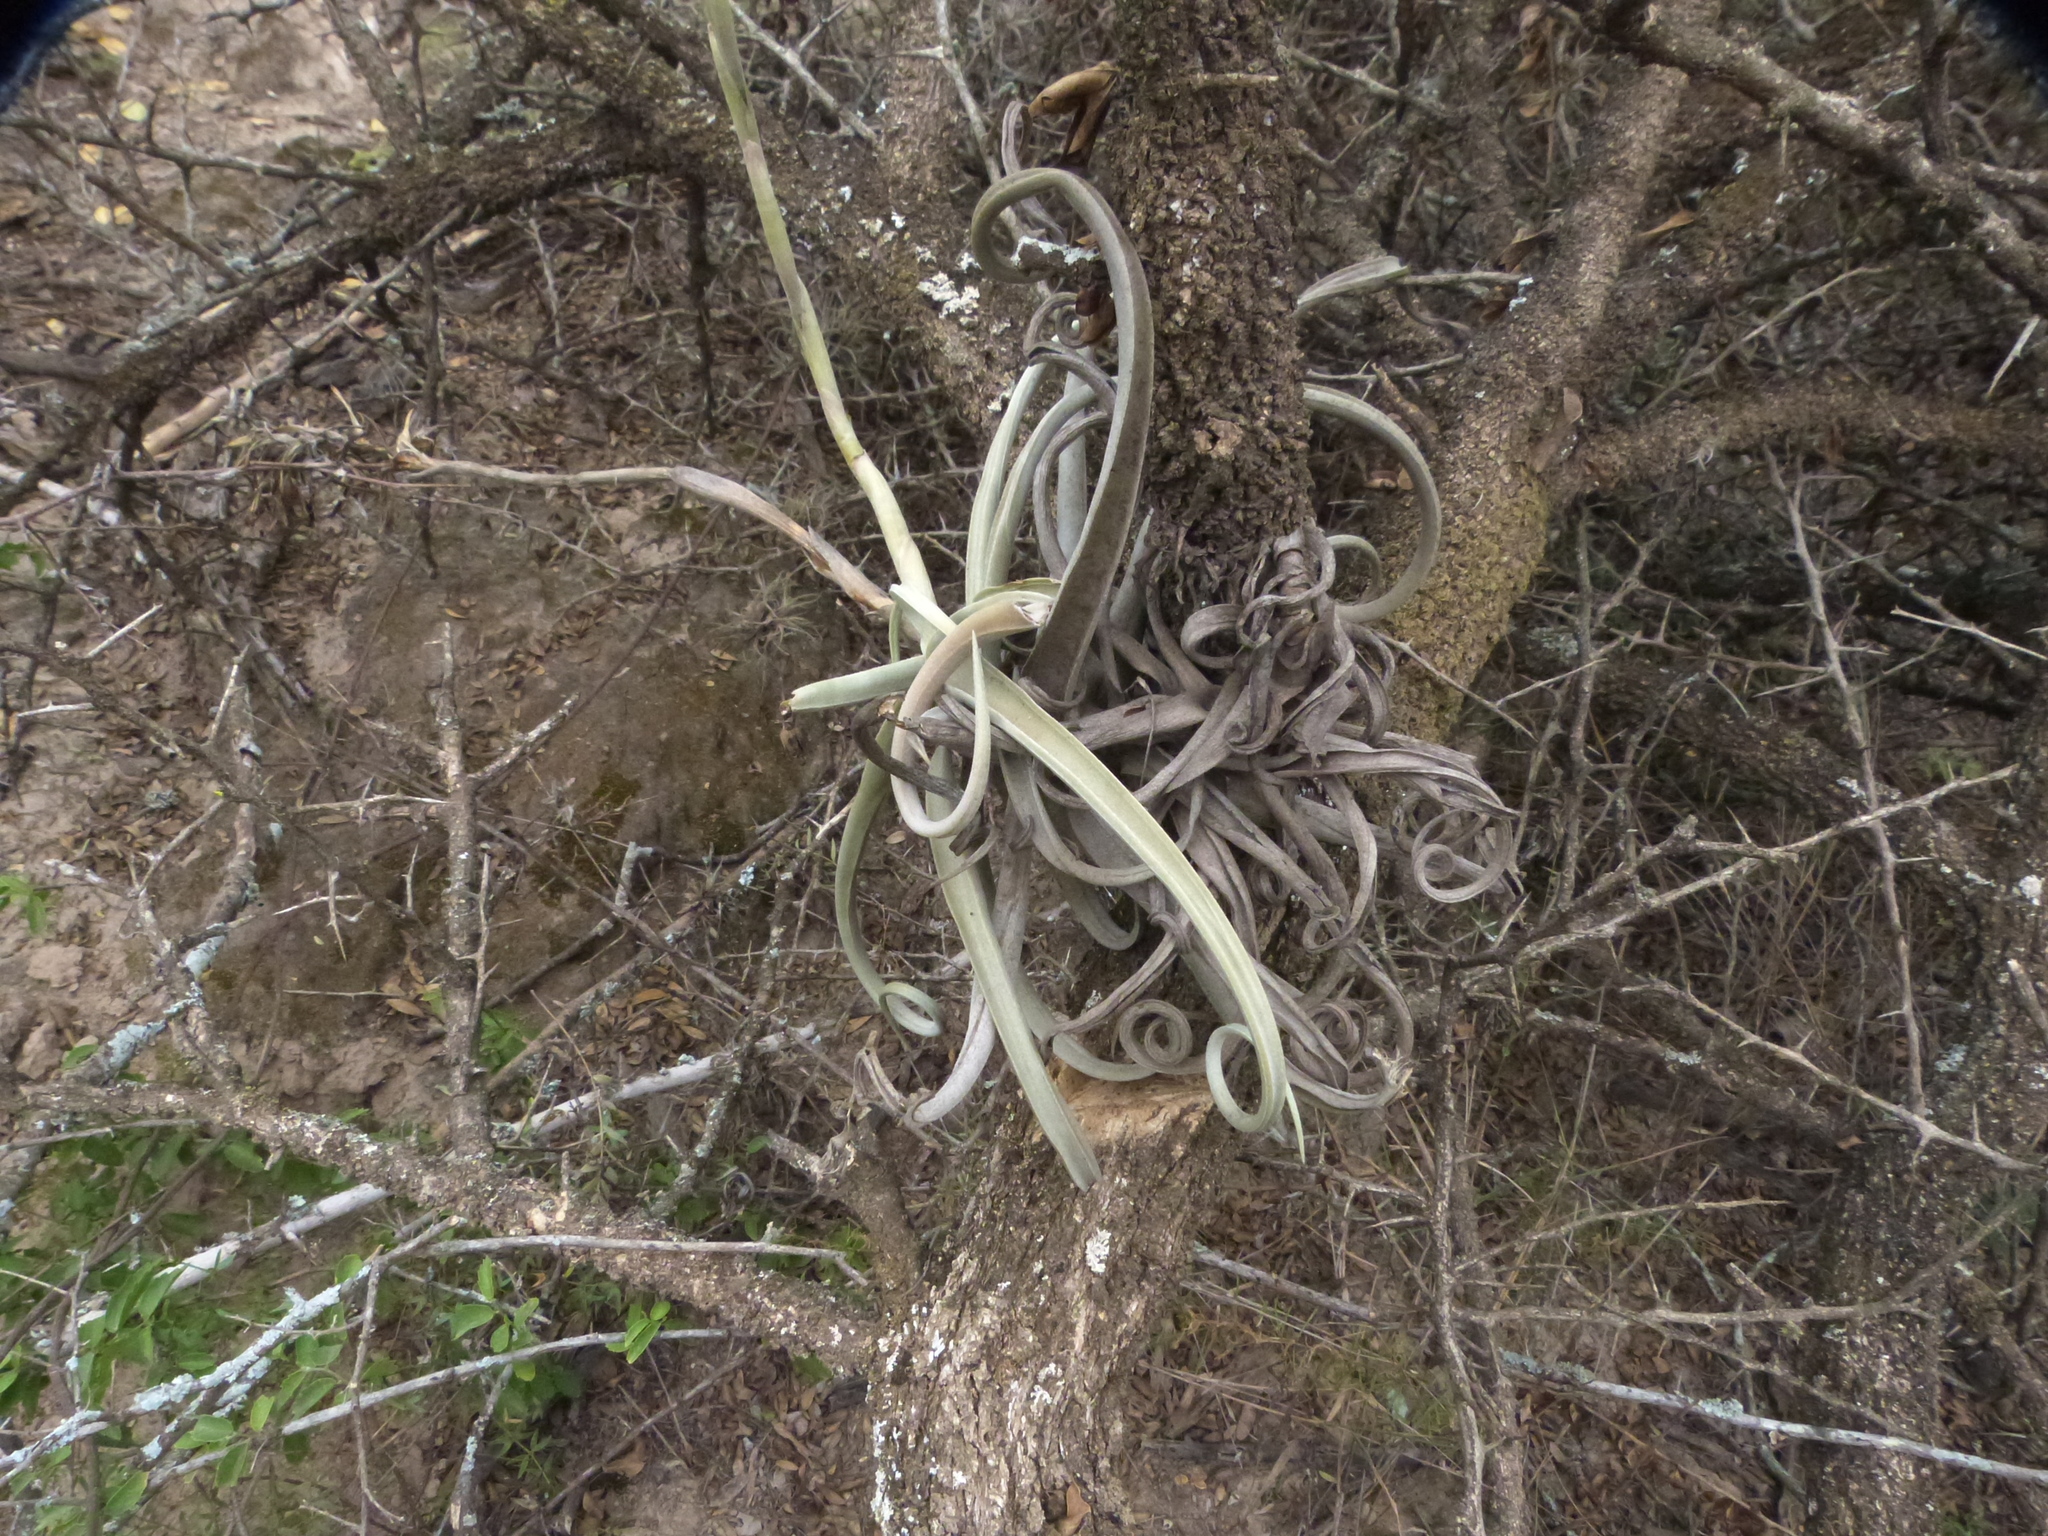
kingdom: Plantae
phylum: Tracheophyta
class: Liliopsida
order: Poales
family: Bromeliaceae
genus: Tillandsia
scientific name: Tillandsia duratii
